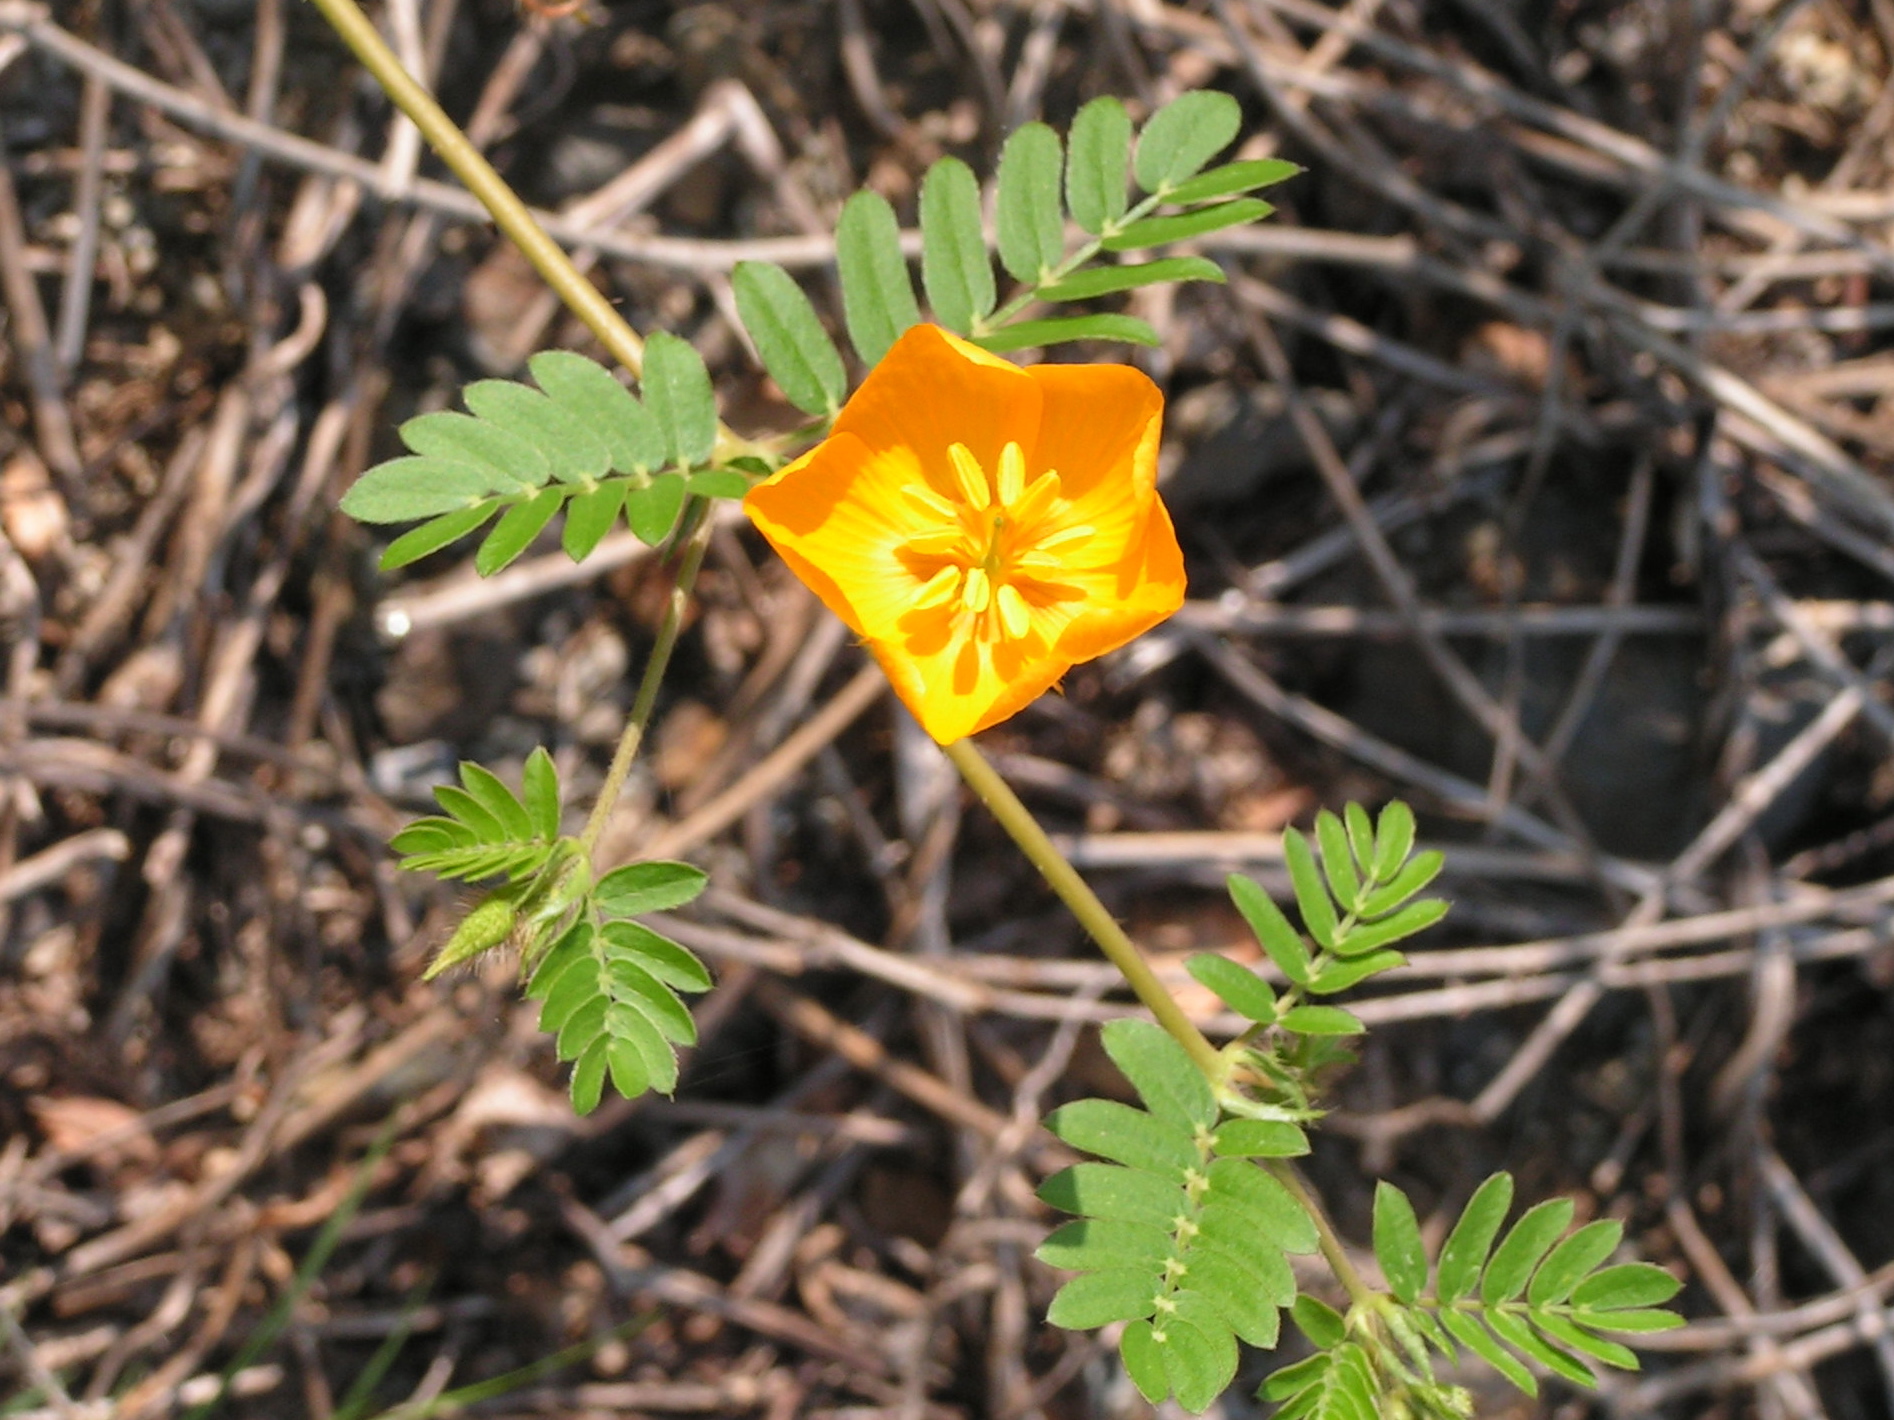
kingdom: Plantae
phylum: Tracheophyta
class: Magnoliopsida
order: Zygophyllales
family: Zygophyllaceae
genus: Kallstroemia
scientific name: Kallstroemia grandiflora
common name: Arizona-poppy
